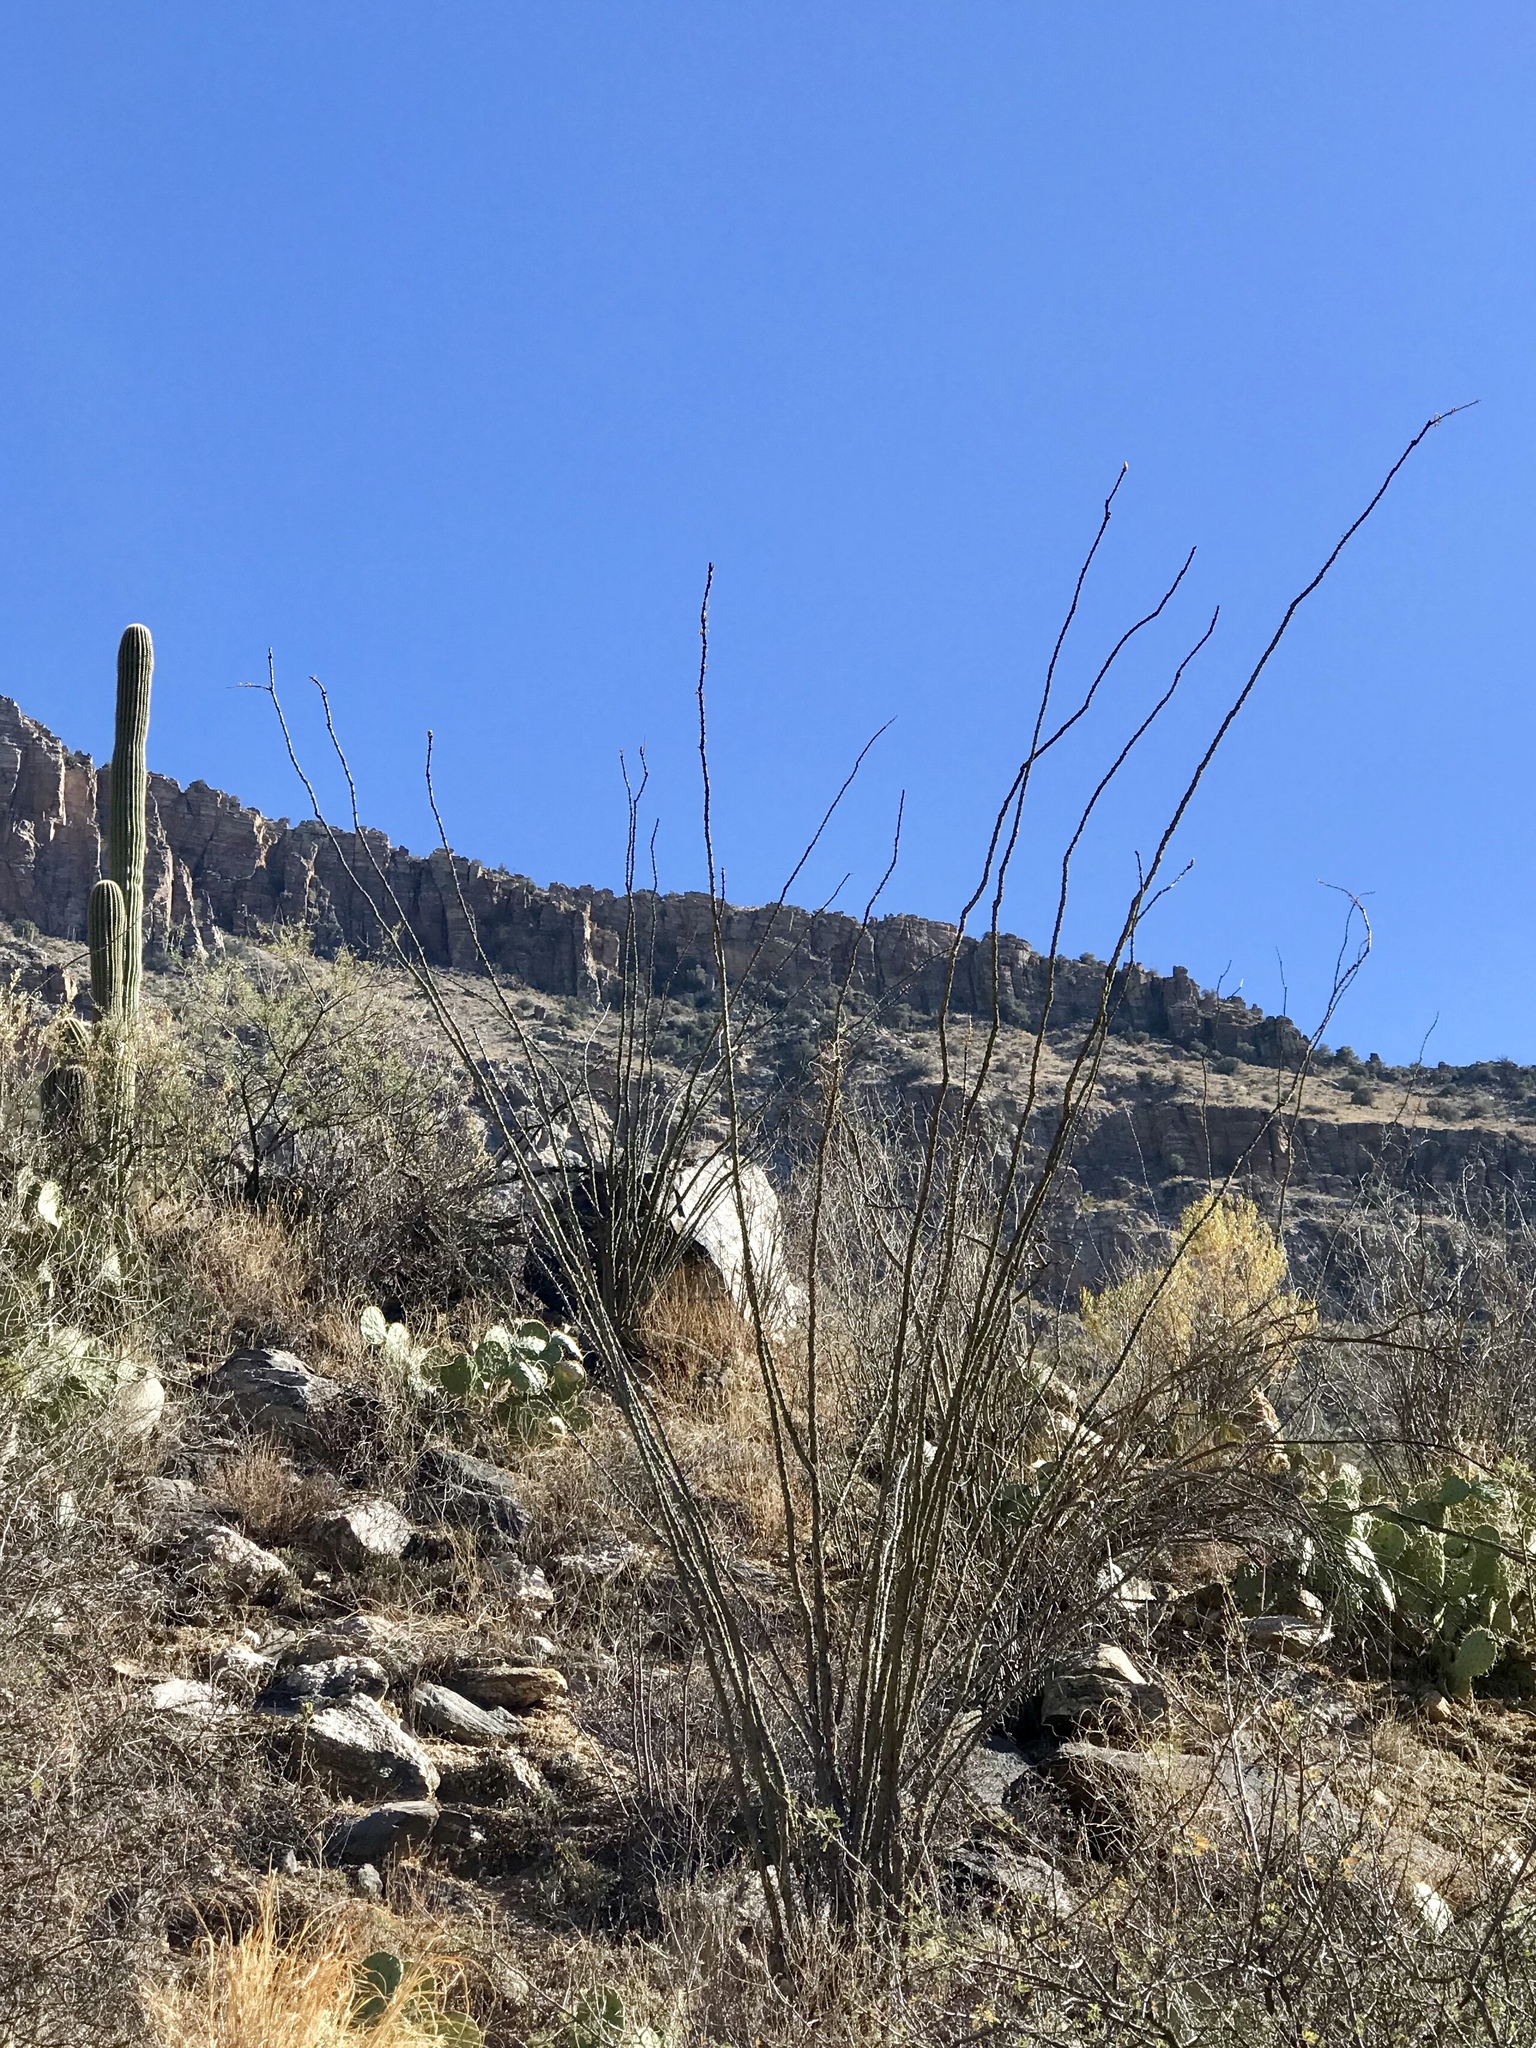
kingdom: Plantae
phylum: Tracheophyta
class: Magnoliopsida
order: Ericales
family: Fouquieriaceae
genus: Fouquieria
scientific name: Fouquieria splendens
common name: Vine-cactus
